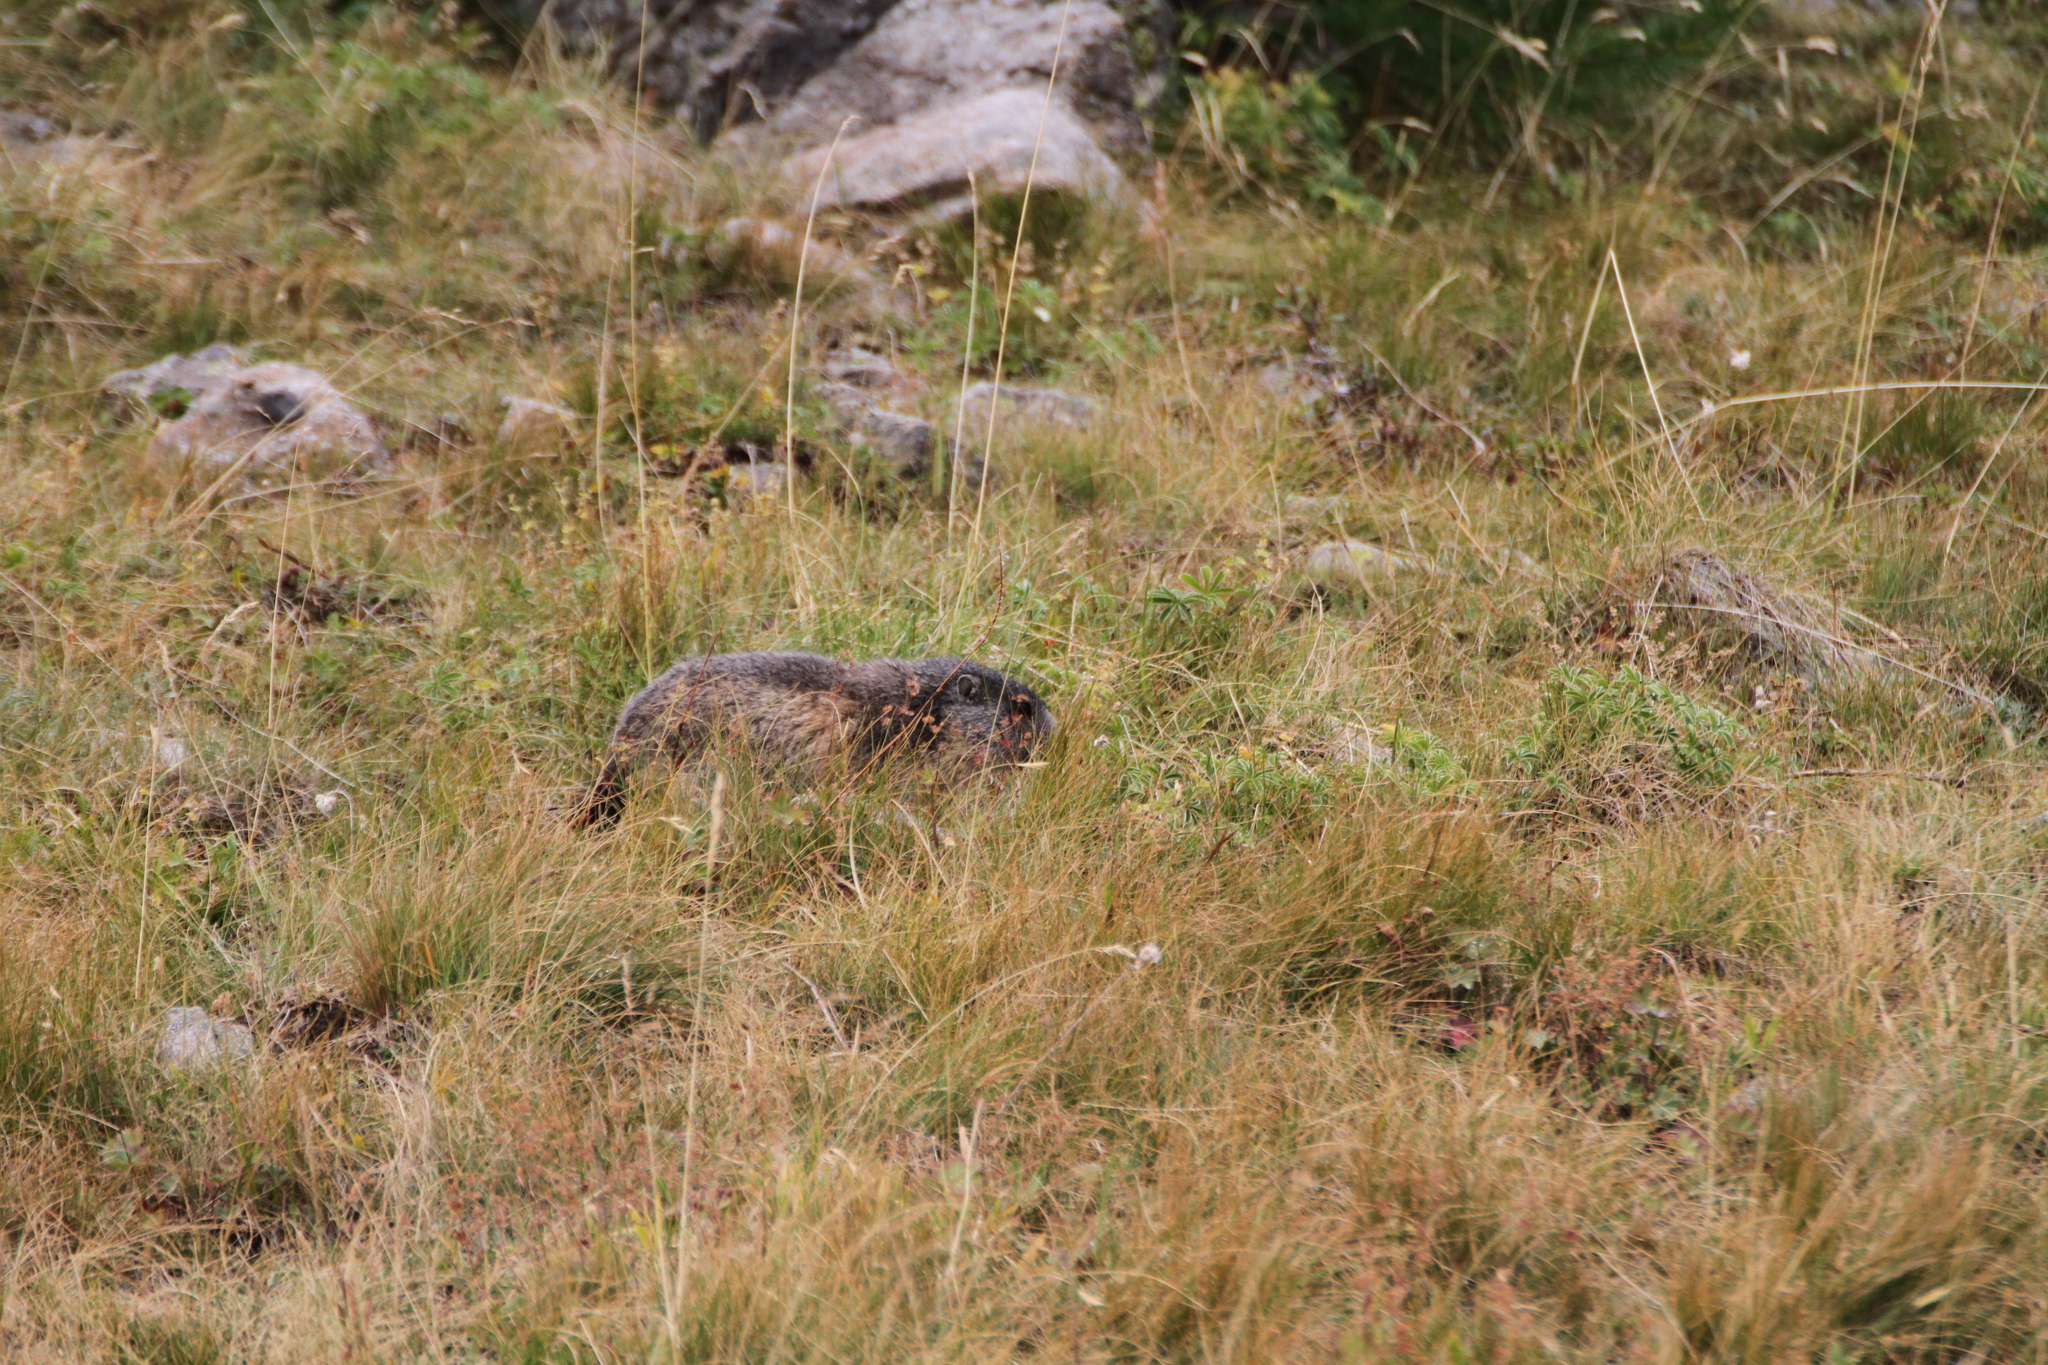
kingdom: Animalia
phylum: Chordata
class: Mammalia
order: Rodentia
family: Sciuridae
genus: Marmota
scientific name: Marmota marmota
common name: Alpine marmot
